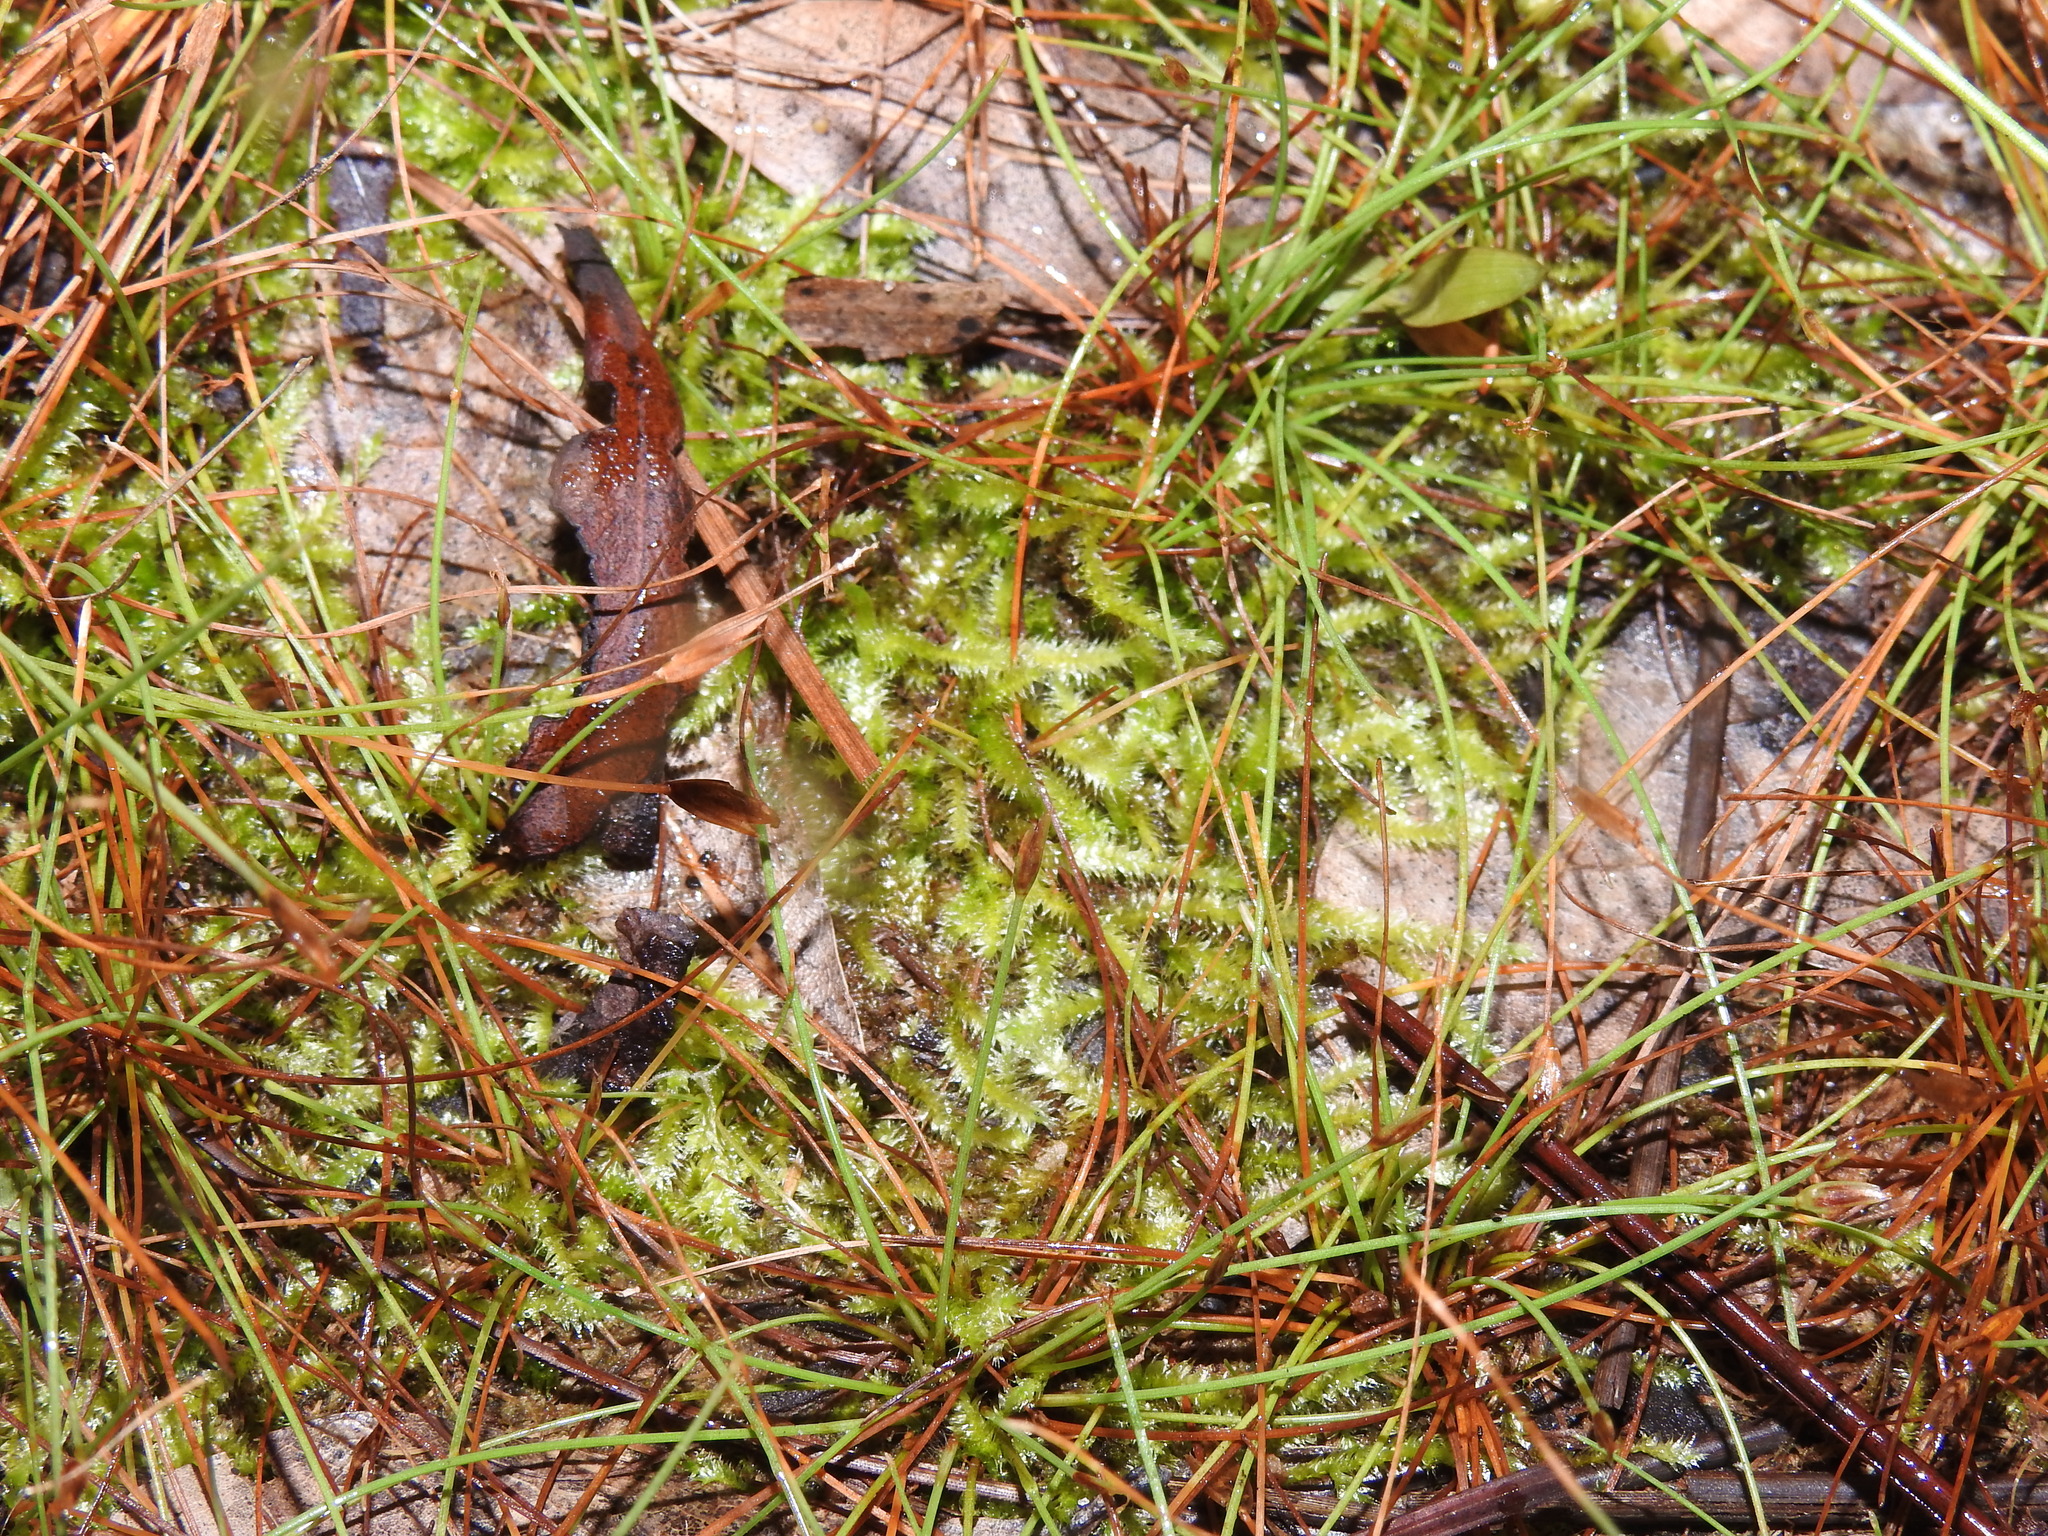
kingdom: Plantae
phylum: Bryophyta
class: Bryopsida
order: Hypnales
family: Pylaisiadelphaceae
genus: Isopterygium
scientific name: Isopterygium tenerum
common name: Isopterygium moss
